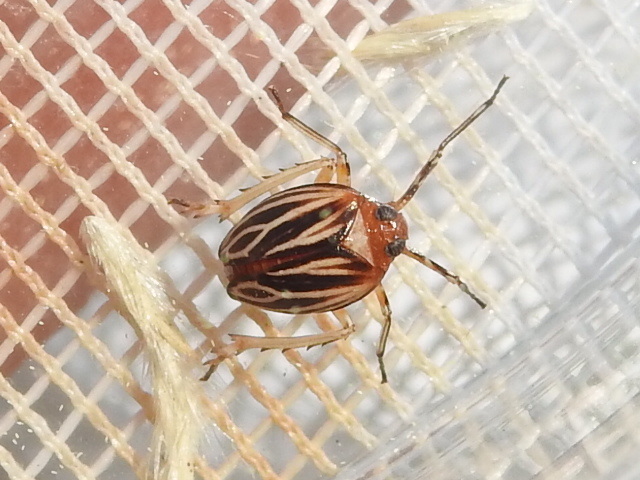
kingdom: Animalia
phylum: Arthropoda
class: Insecta
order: Hemiptera
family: Achilidae
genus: Isodaemon
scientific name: Isodaemon orontes
